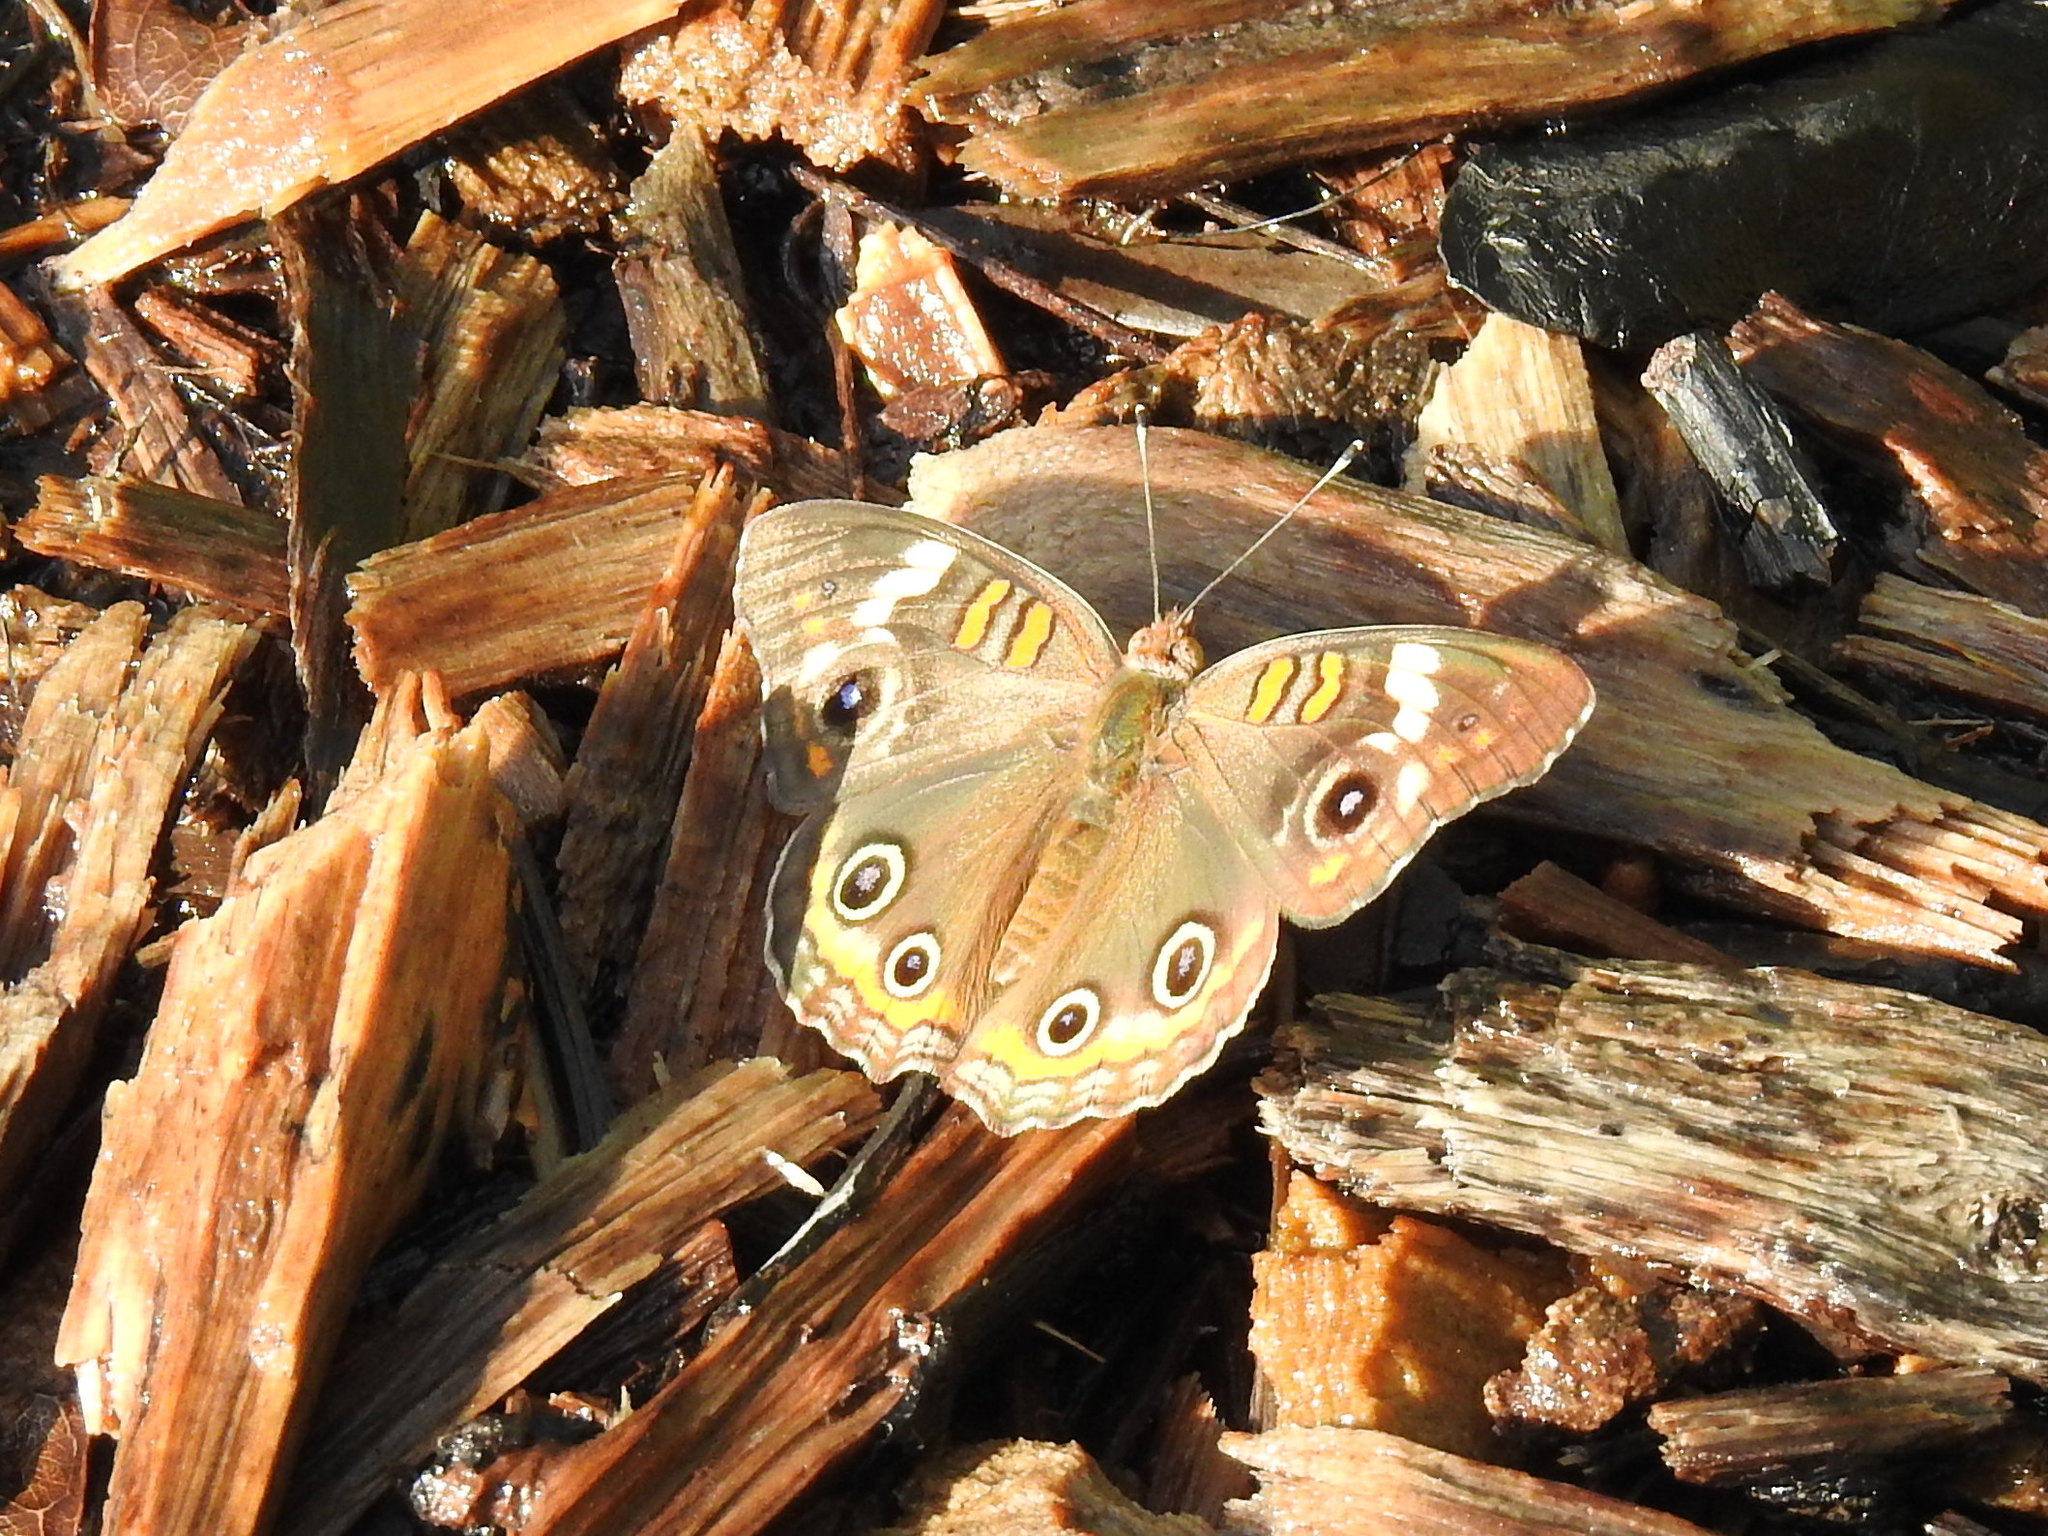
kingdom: Animalia
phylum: Arthropoda
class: Insecta
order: Lepidoptera
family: Nymphalidae
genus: Junonia
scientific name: Junonia coenia
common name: Common buckeye
